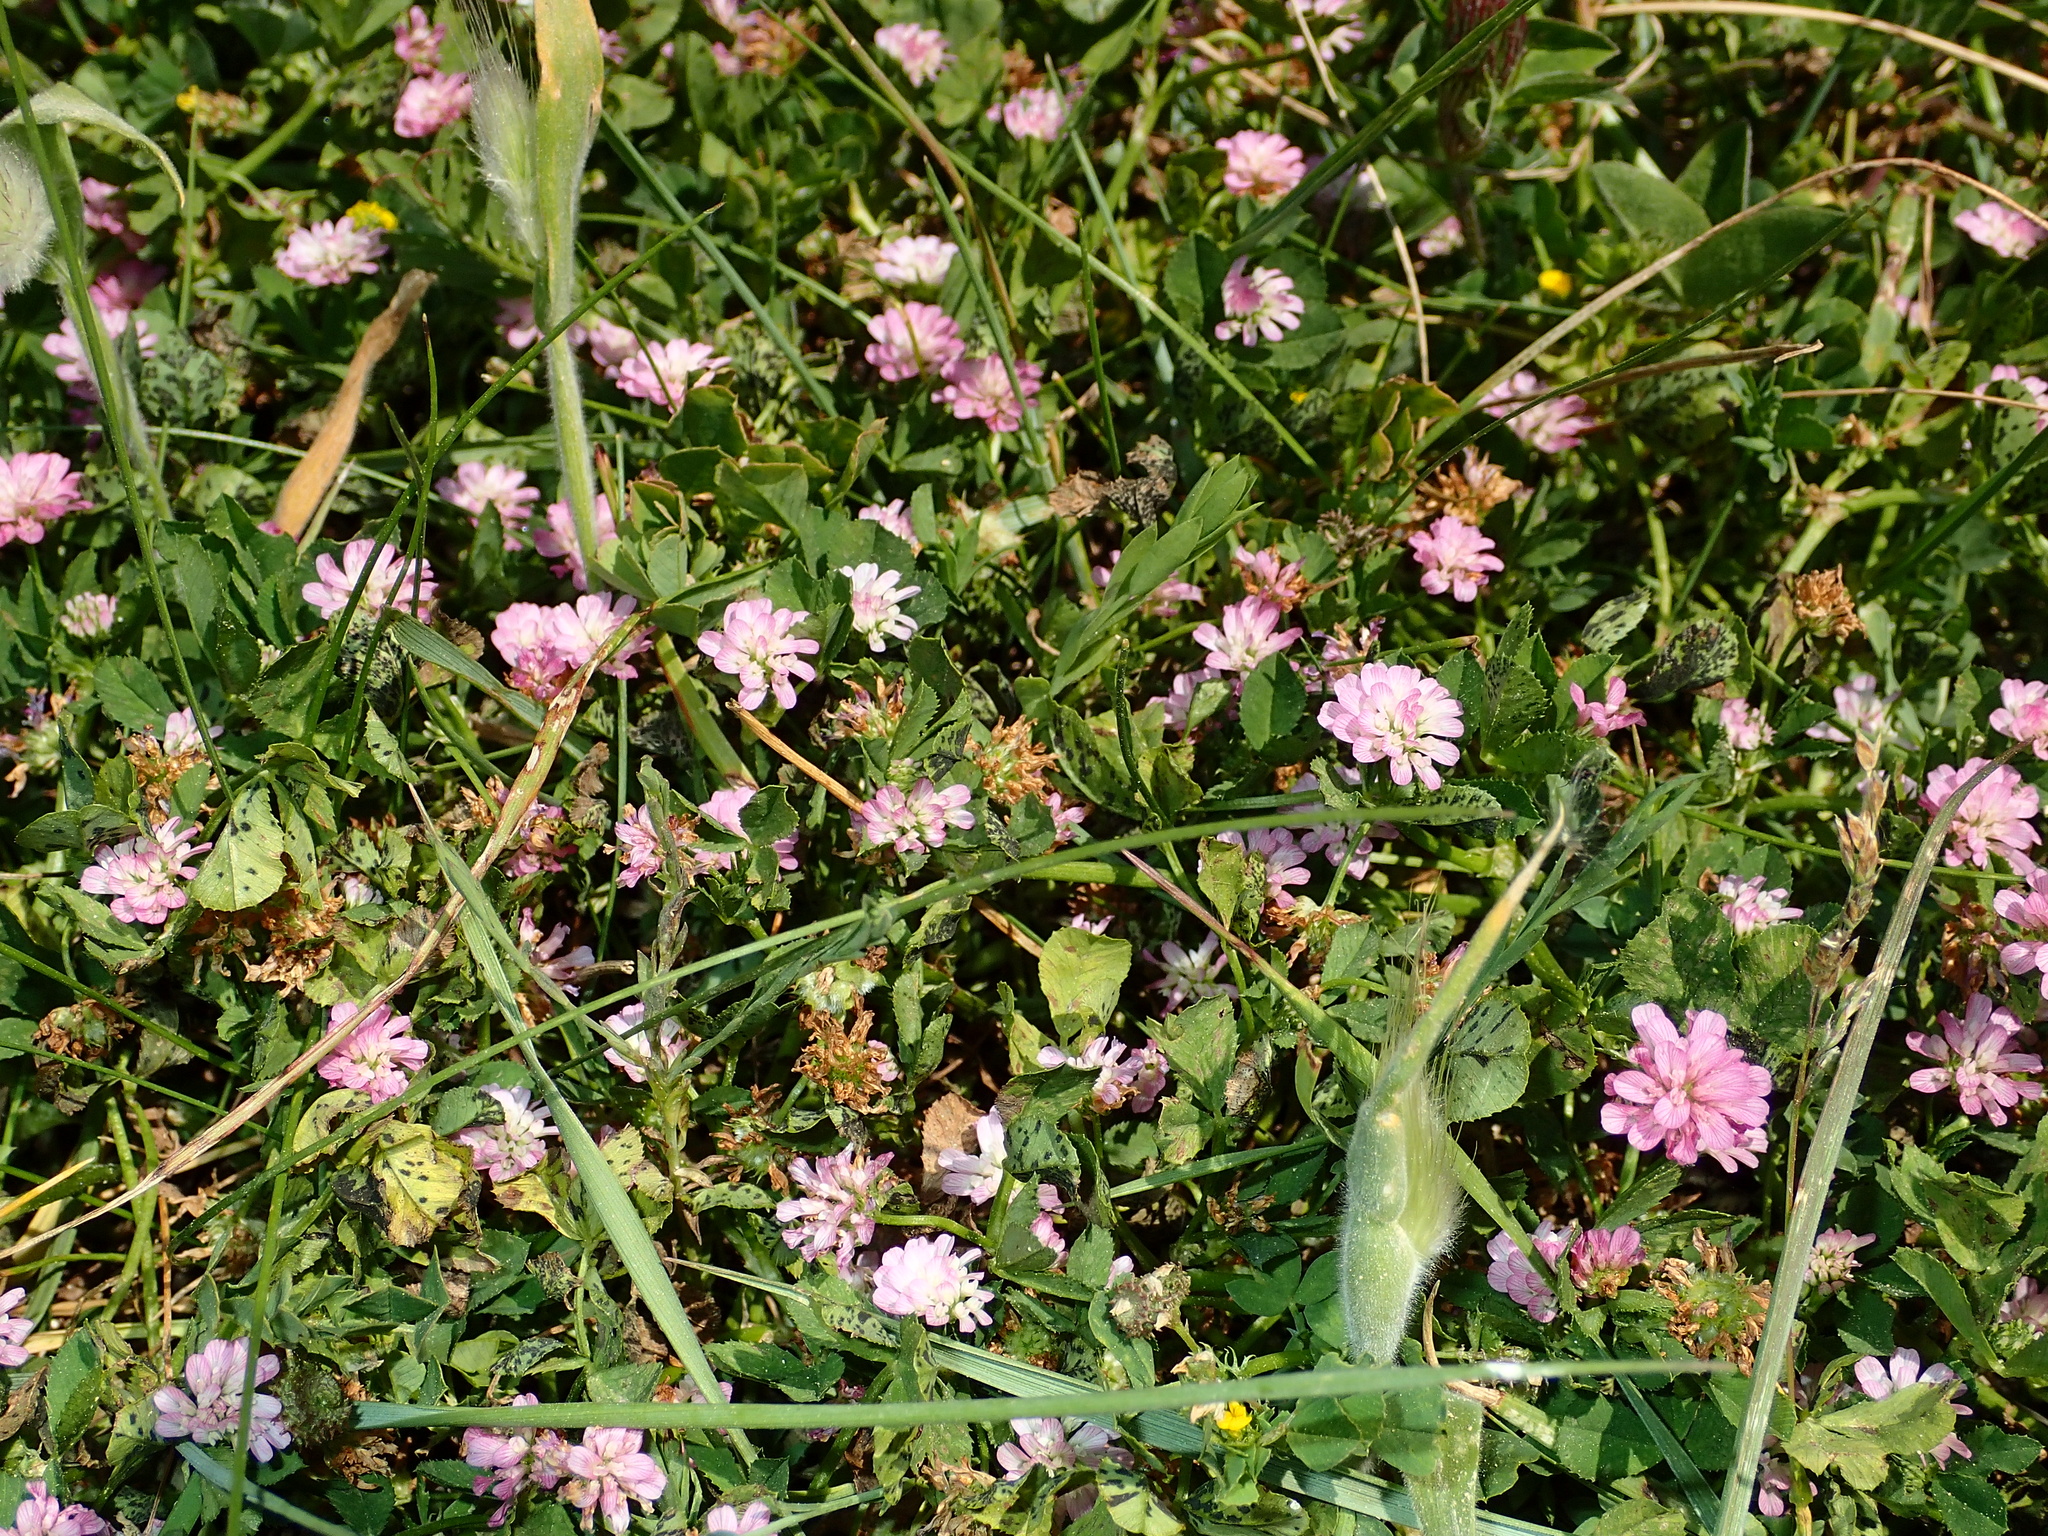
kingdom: Plantae
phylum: Tracheophyta
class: Magnoliopsida
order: Fabales
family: Fabaceae
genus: Trifolium
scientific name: Trifolium resupinatum
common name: Reversed clover
